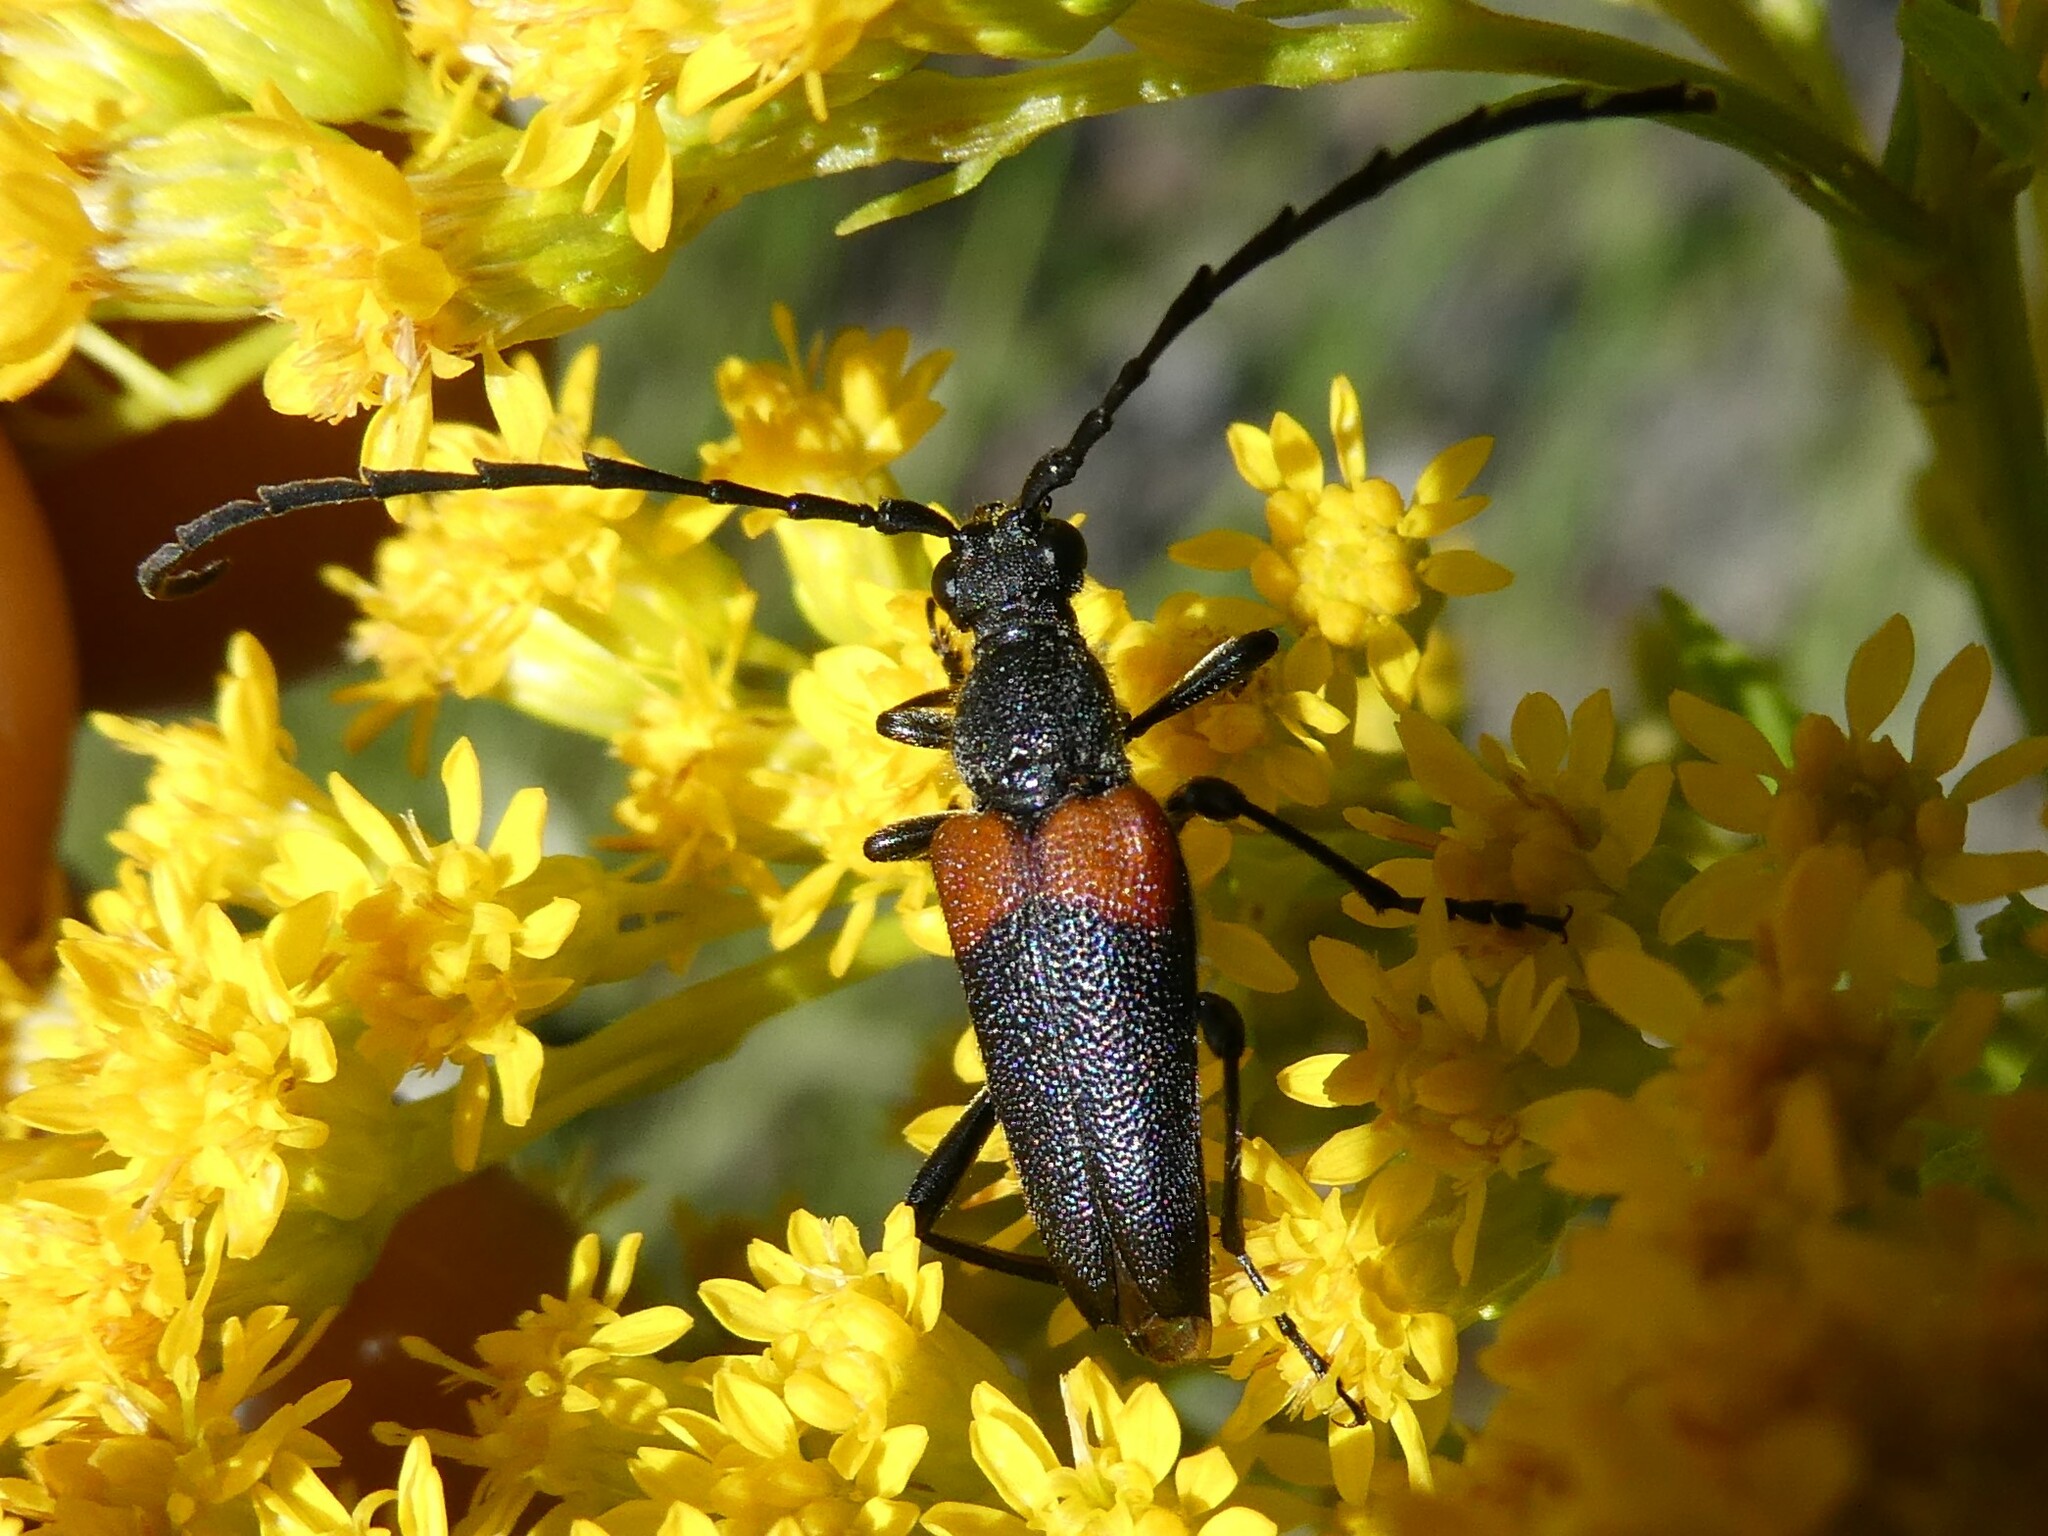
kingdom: Animalia
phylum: Arthropoda
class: Insecta
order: Coleoptera
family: Cerambycidae
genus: Stictoleptura
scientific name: Stictoleptura canadensis
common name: Red-shouldered pine borer
